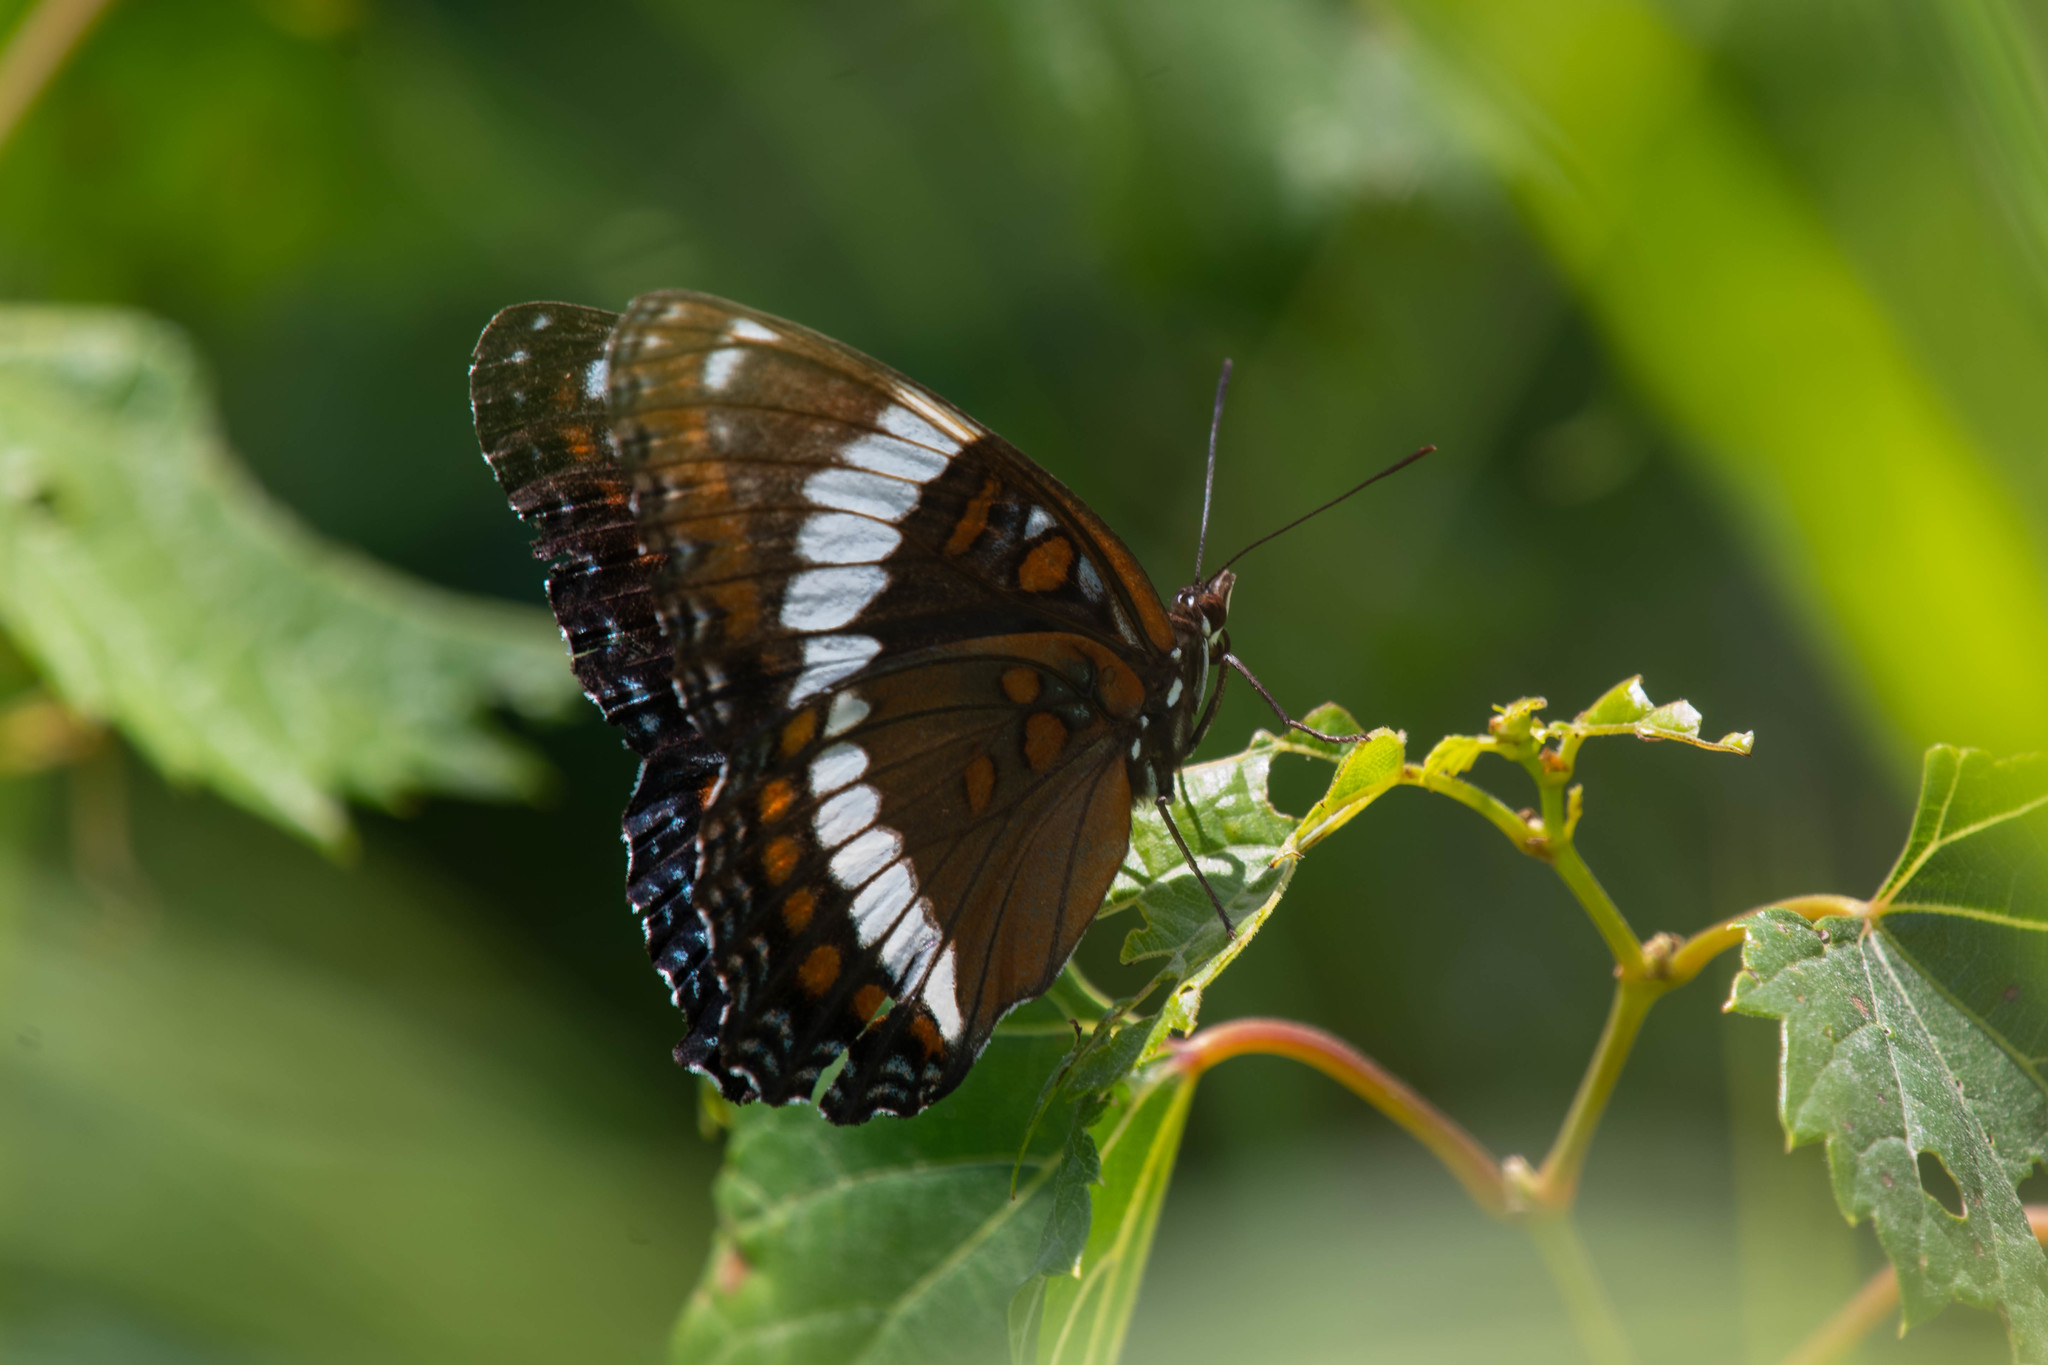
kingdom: Animalia
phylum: Arthropoda
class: Insecta
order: Lepidoptera
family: Nymphalidae
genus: Limenitis
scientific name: Limenitis arthemis
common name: Red-spotted admiral
